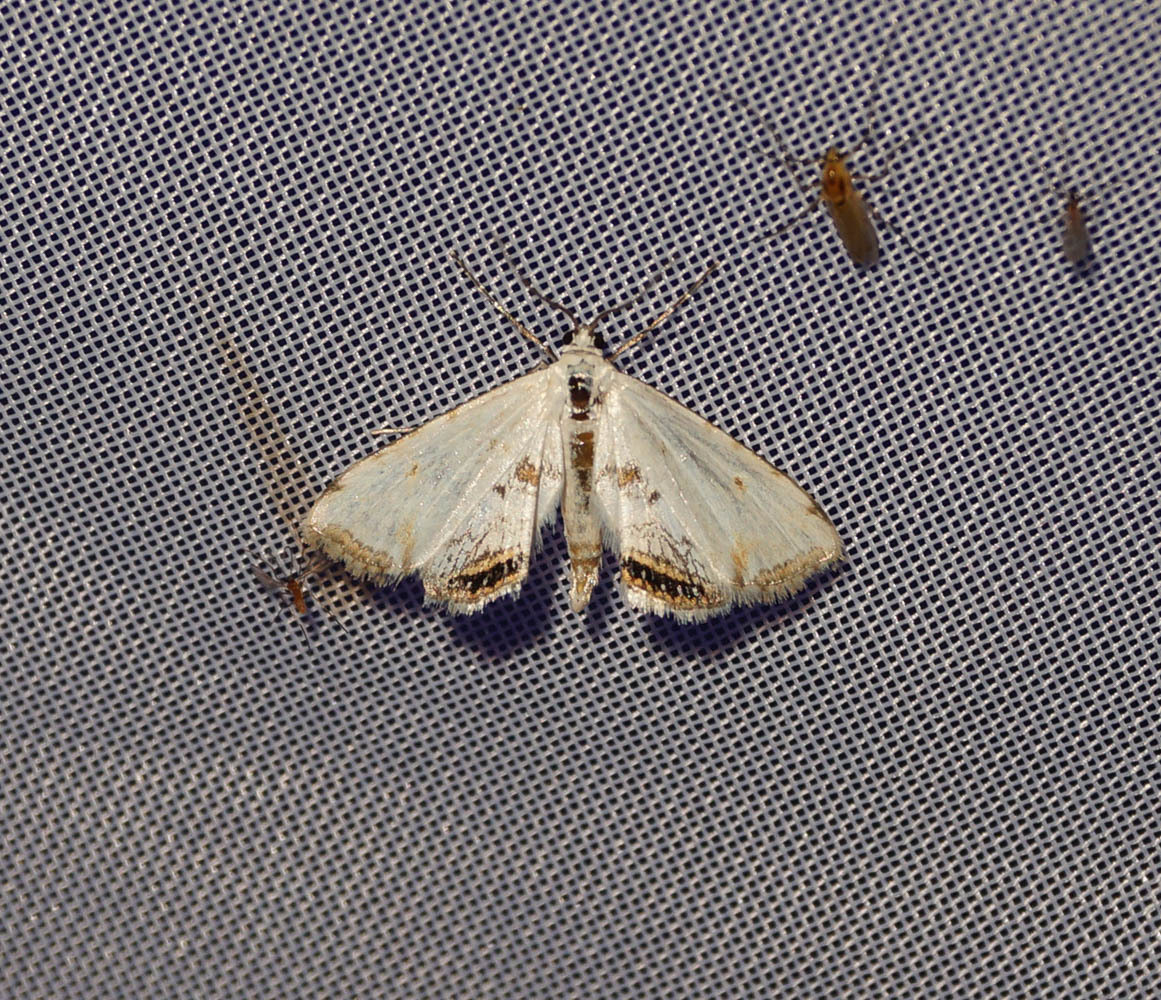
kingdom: Animalia
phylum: Arthropoda
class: Insecta
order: Lepidoptera
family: Crambidae
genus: Cataclysta
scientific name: Cataclysta lemnata
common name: Small china-mark
